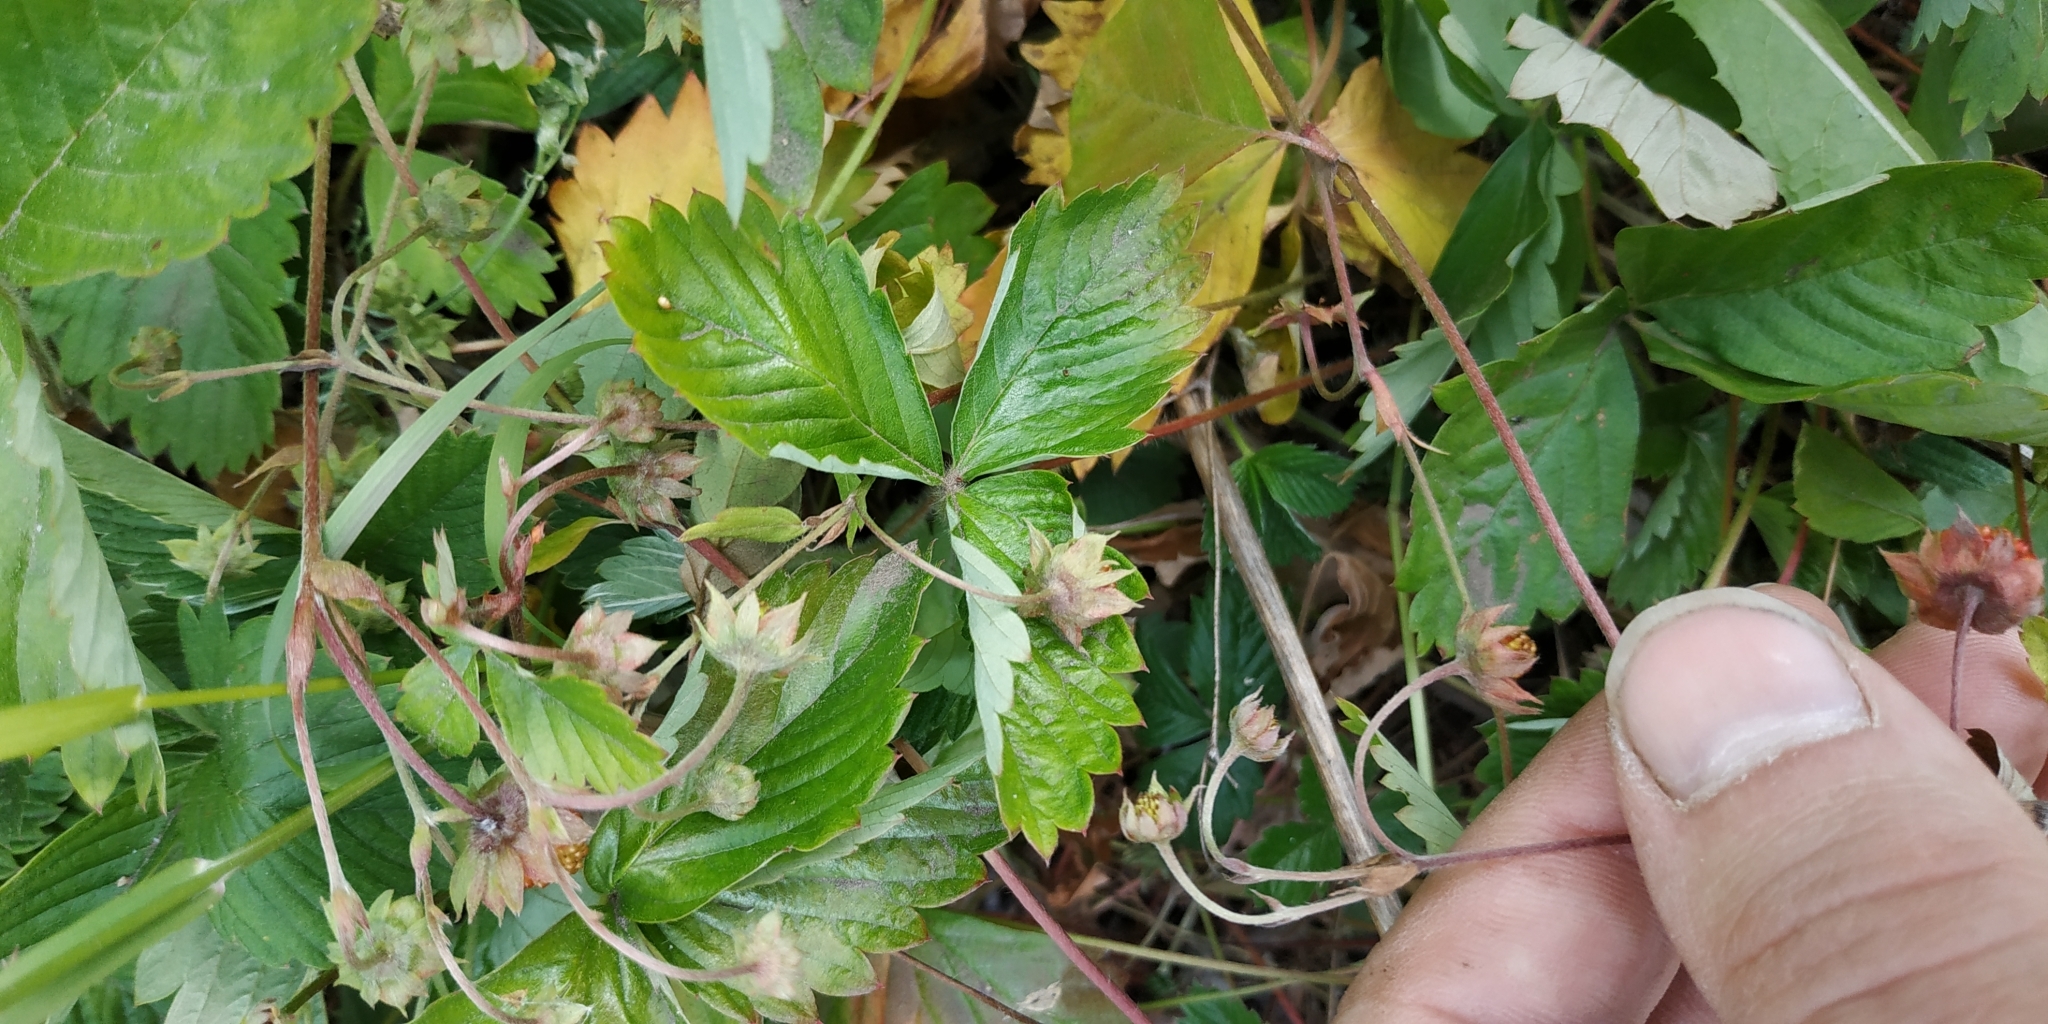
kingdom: Plantae
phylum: Tracheophyta
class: Magnoliopsida
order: Rosales
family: Rosaceae
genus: Fragaria
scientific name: Fragaria viridis
